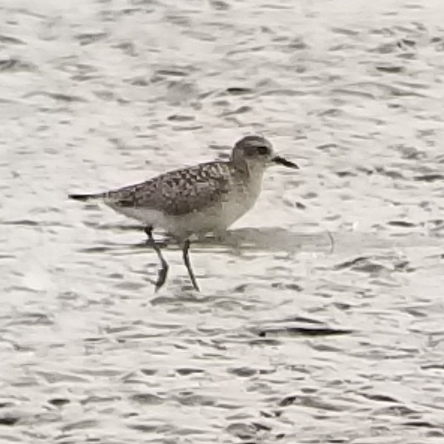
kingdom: Animalia
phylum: Chordata
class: Aves
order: Charadriiformes
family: Charadriidae
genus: Pluvialis
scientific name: Pluvialis squatarola
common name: Grey plover
